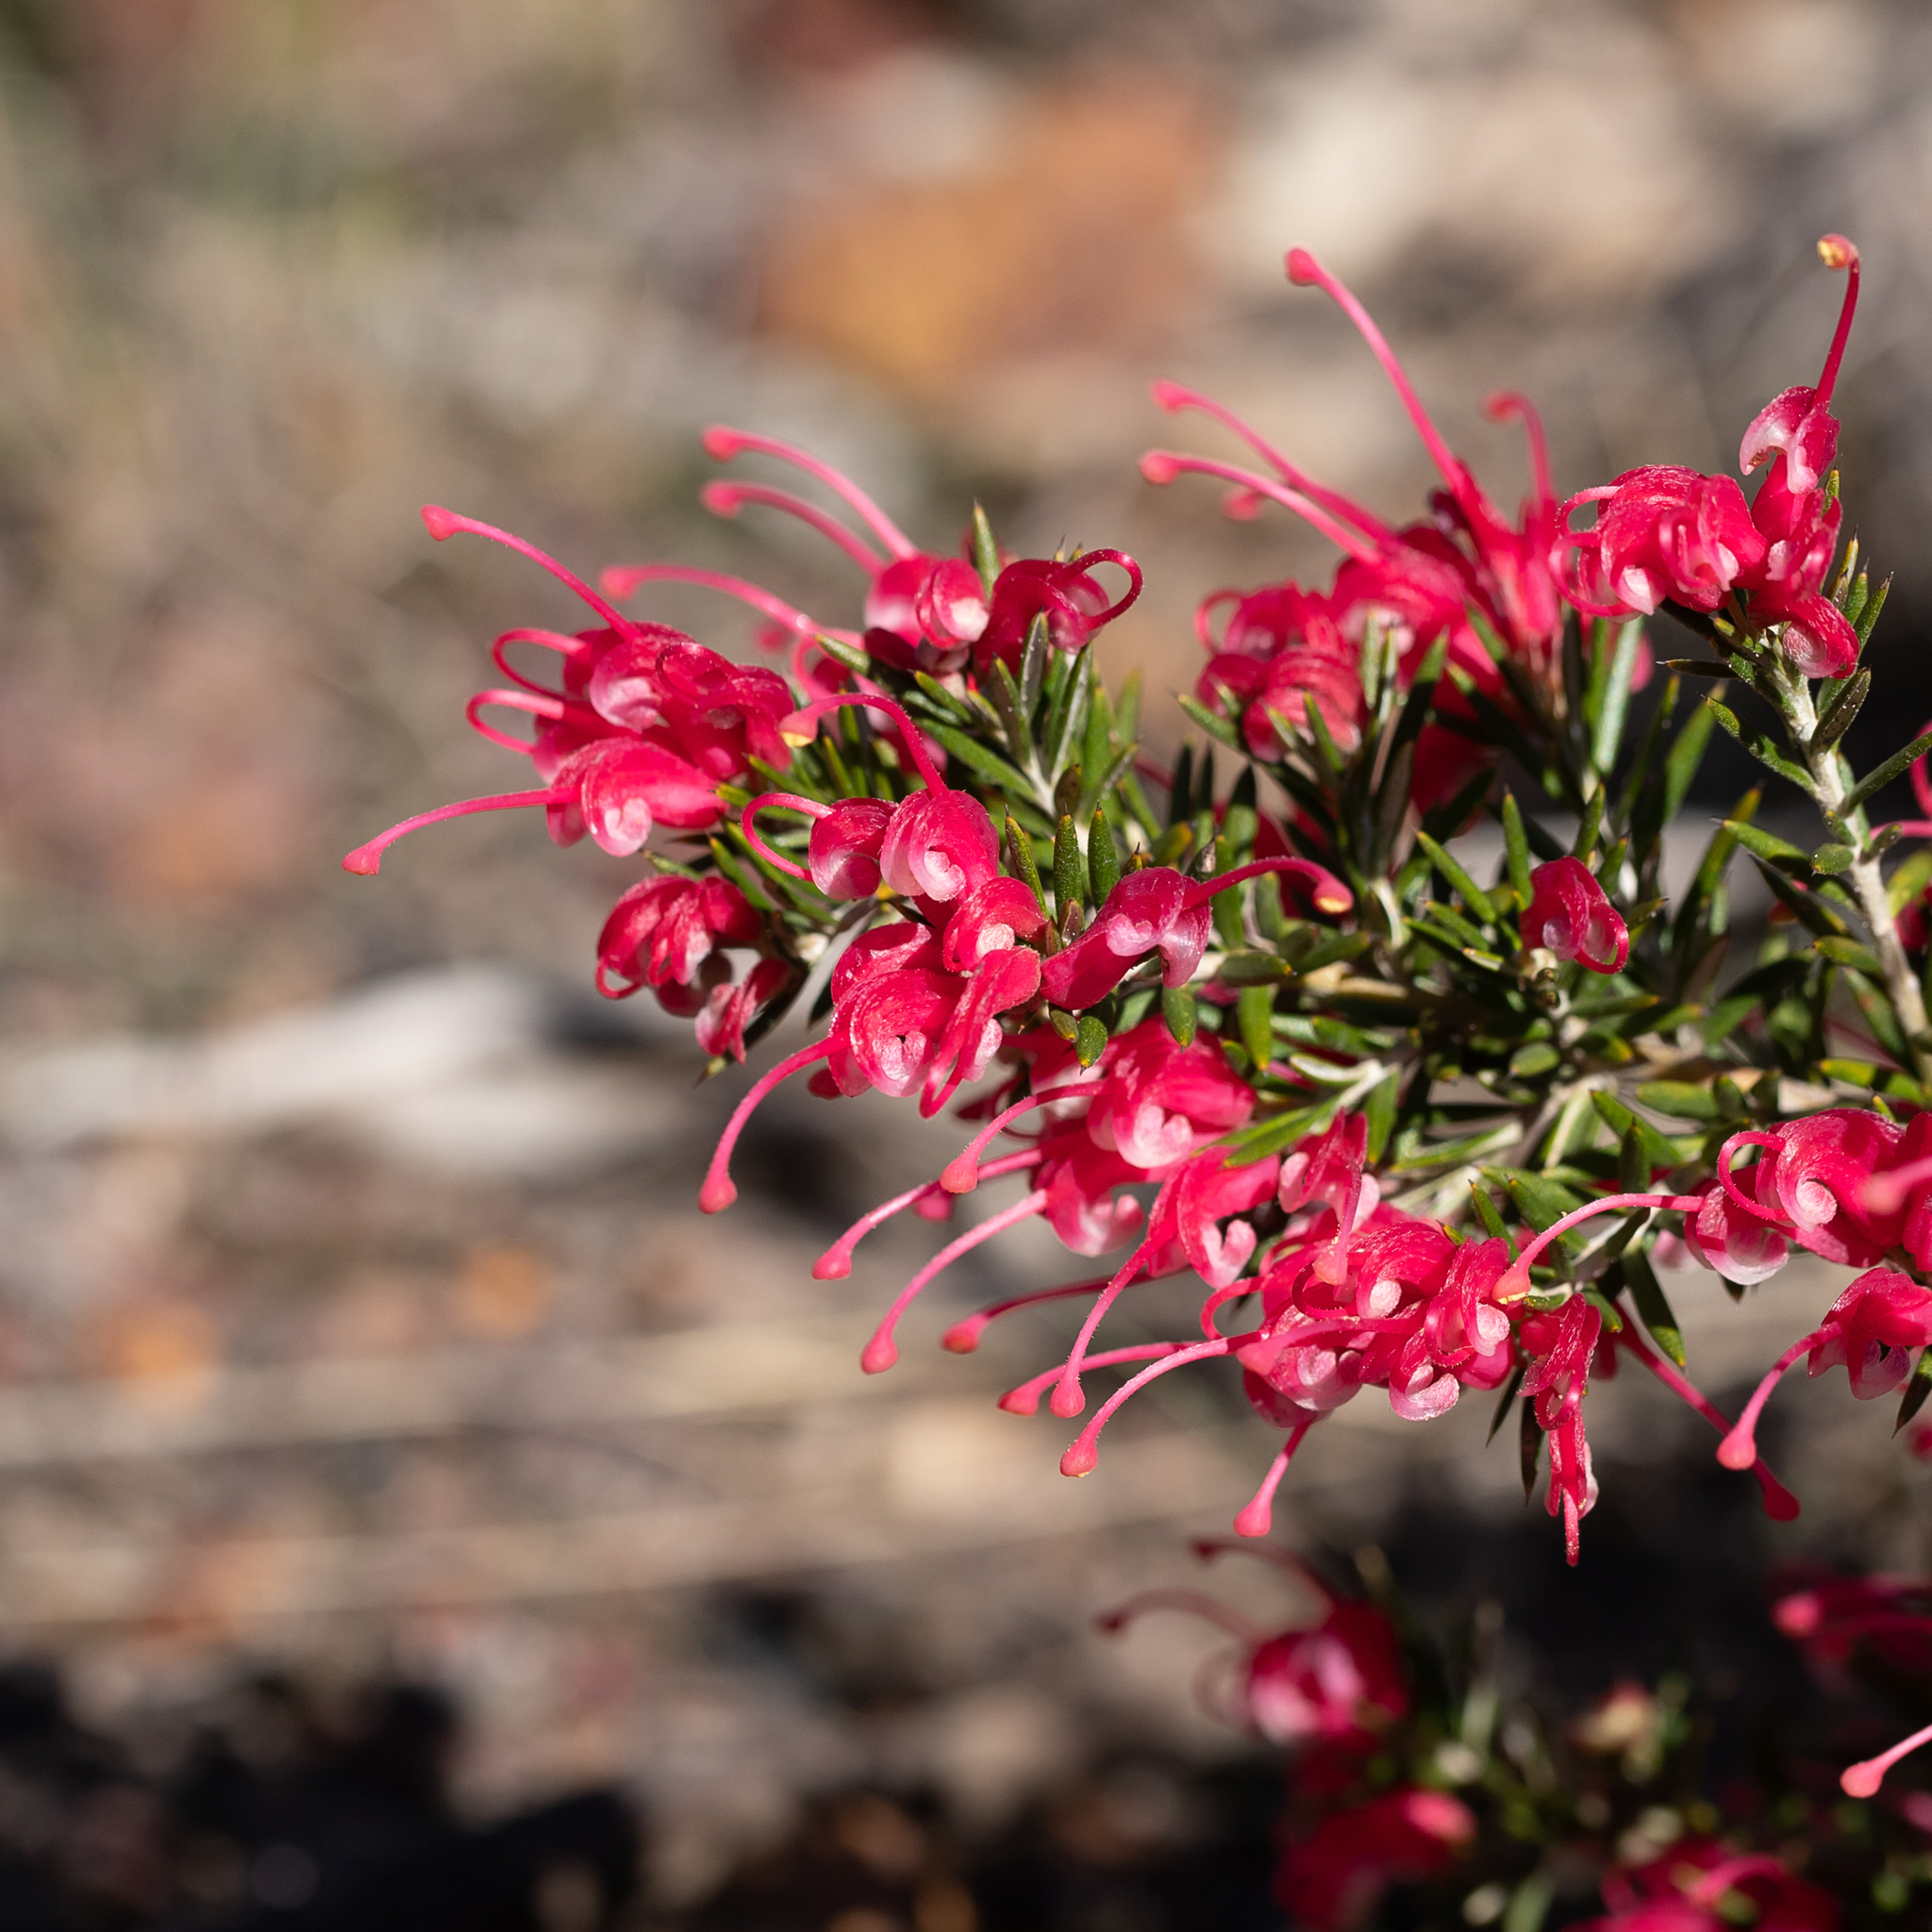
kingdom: Plantae
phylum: Tracheophyta
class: Magnoliopsida
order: Proteales
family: Proteaceae
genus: Grevillea
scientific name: Grevillea lavandulacea
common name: Lavender grevillea
